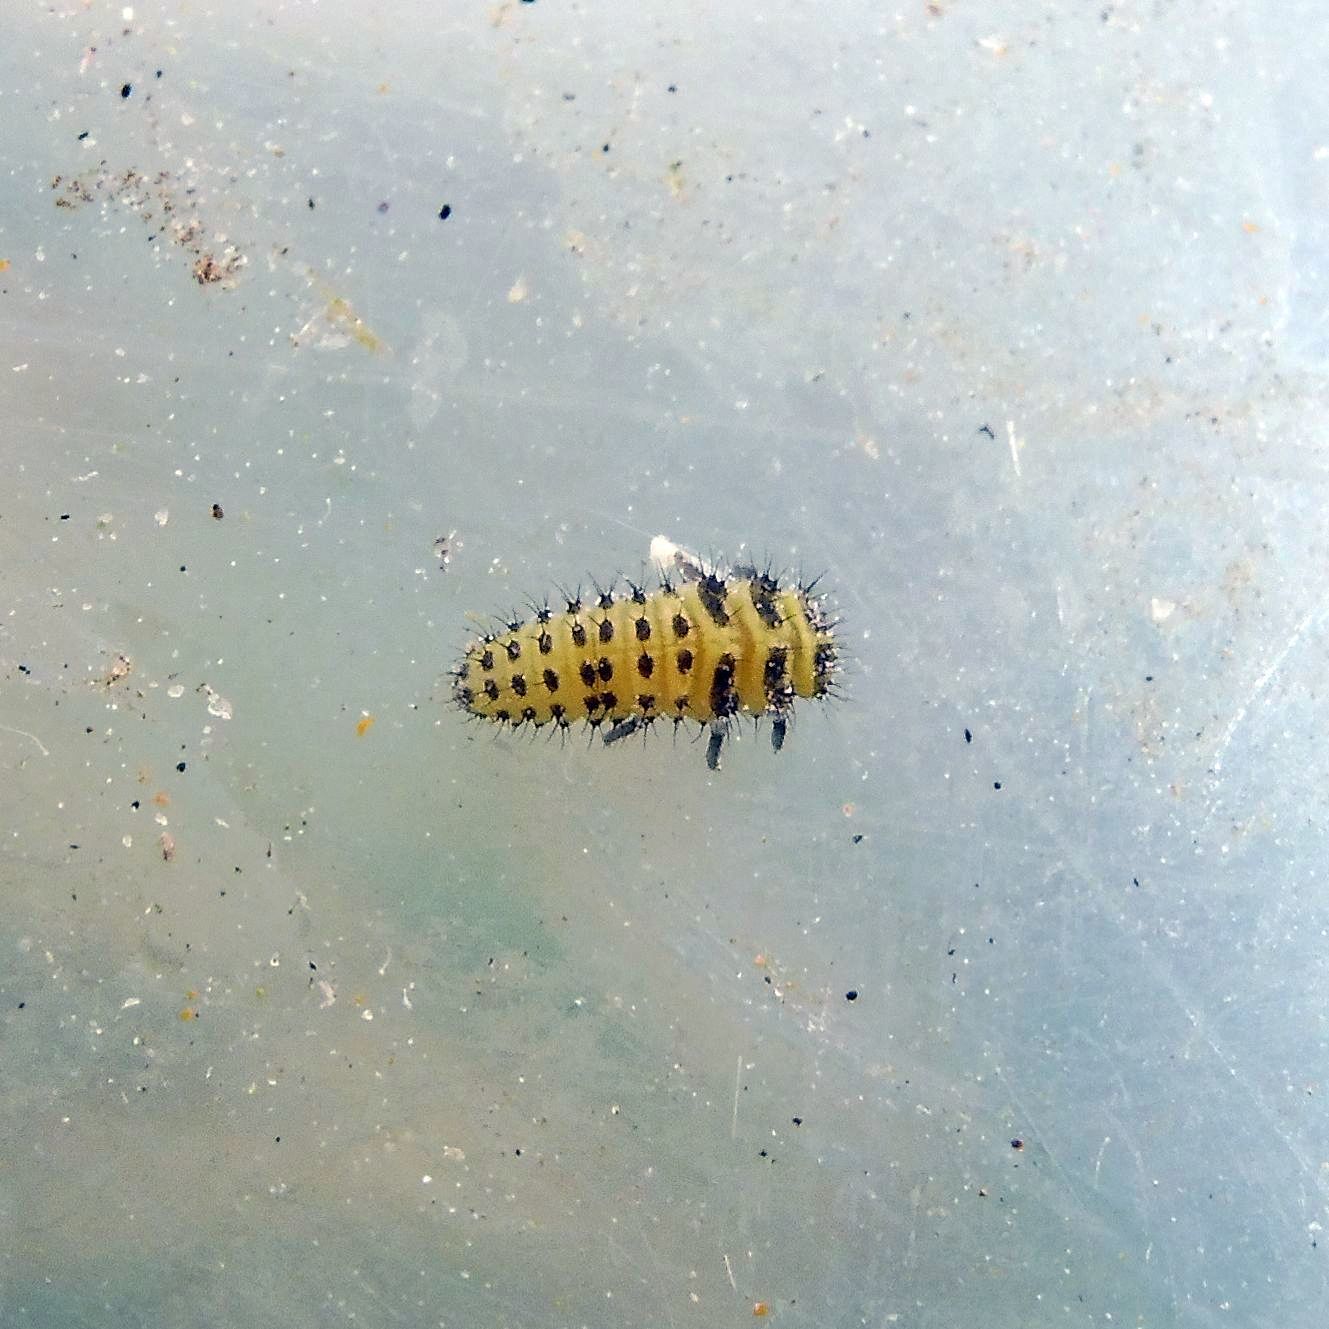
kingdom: Animalia
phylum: Arthropoda
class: Insecta
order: Coleoptera
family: Coccinellidae
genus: Psyllobora
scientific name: Psyllobora vigintiduopunctata
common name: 22-spot ladybird
